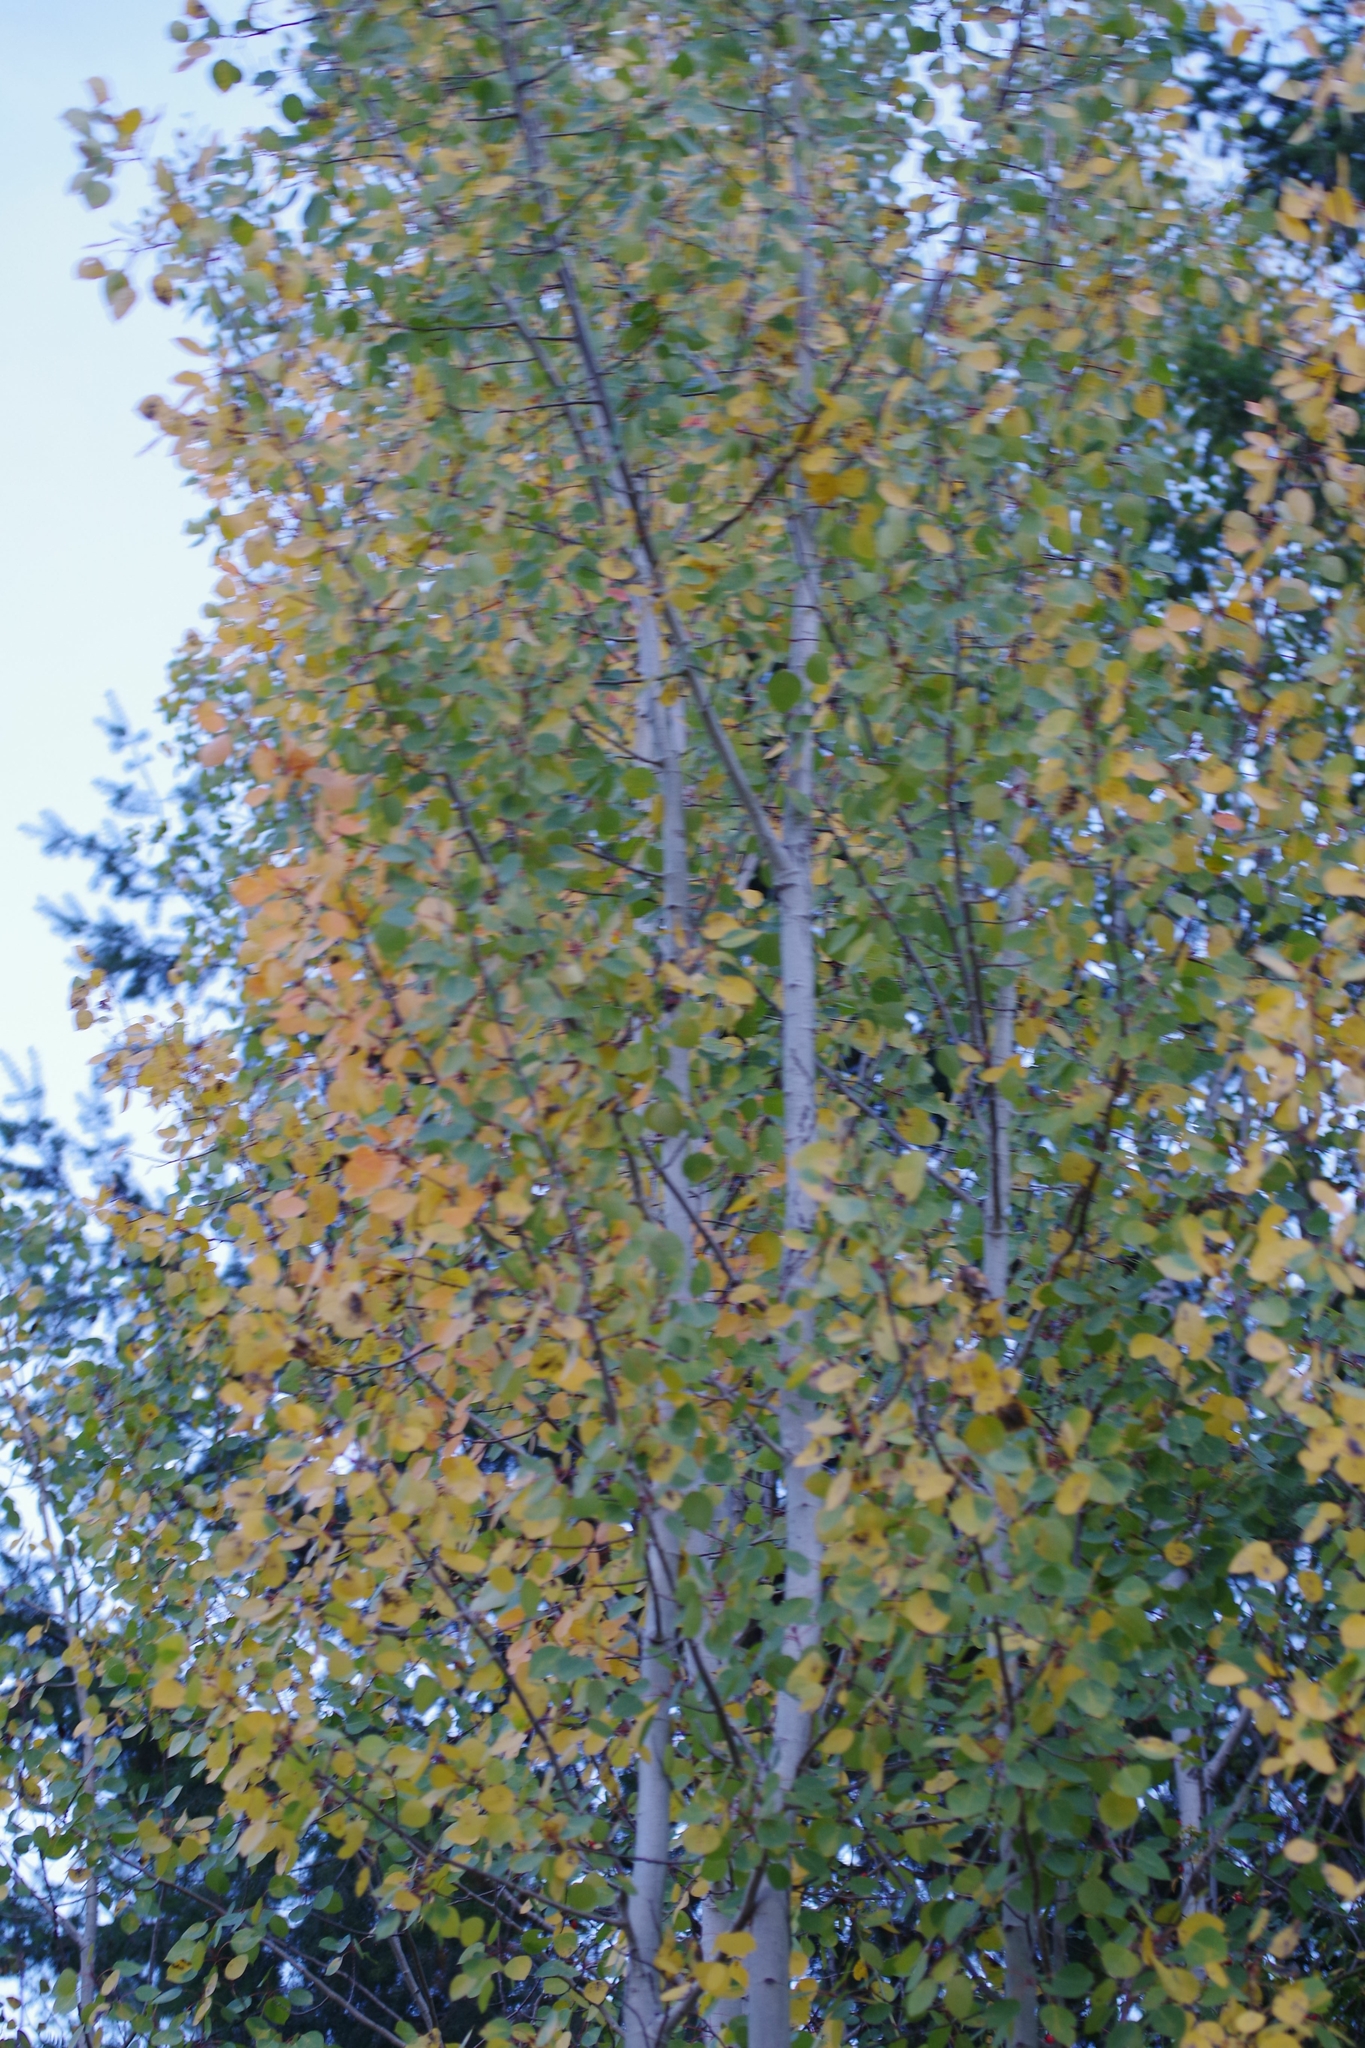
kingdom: Plantae
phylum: Tracheophyta
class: Magnoliopsida
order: Malpighiales
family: Salicaceae
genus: Populus
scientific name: Populus tremuloides
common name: Quaking aspen
